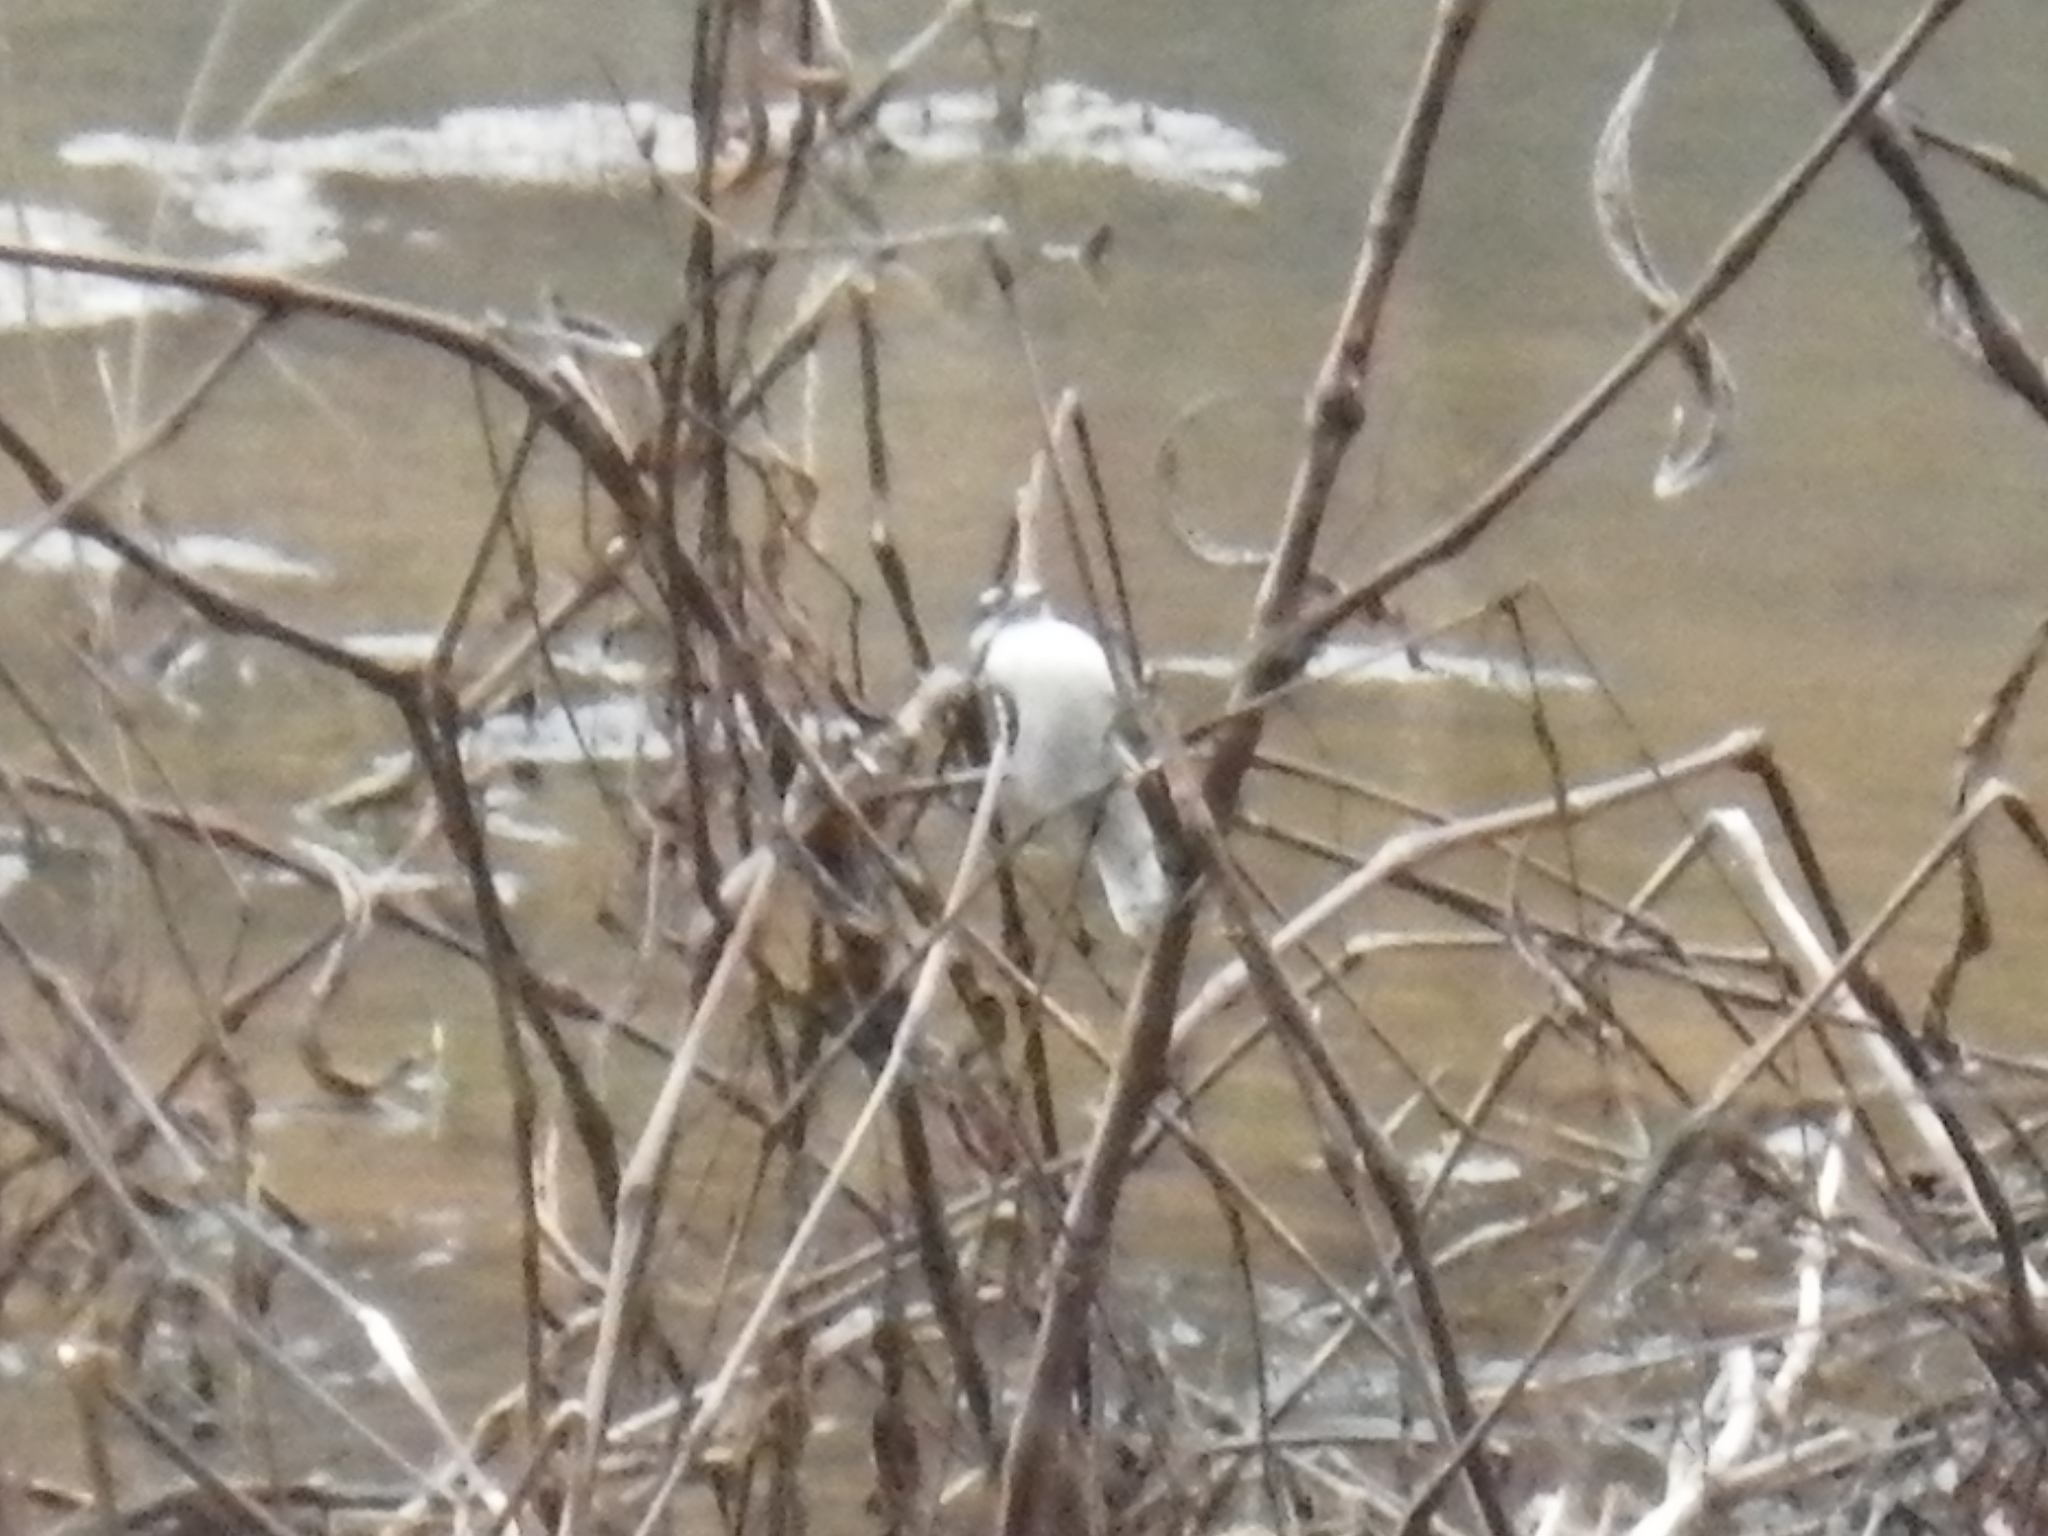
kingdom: Animalia
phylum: Chordata
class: Aves
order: Piciformes
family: Picidae
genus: Dryobates
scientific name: Dryobates pubescens
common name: Downy woodpecker
